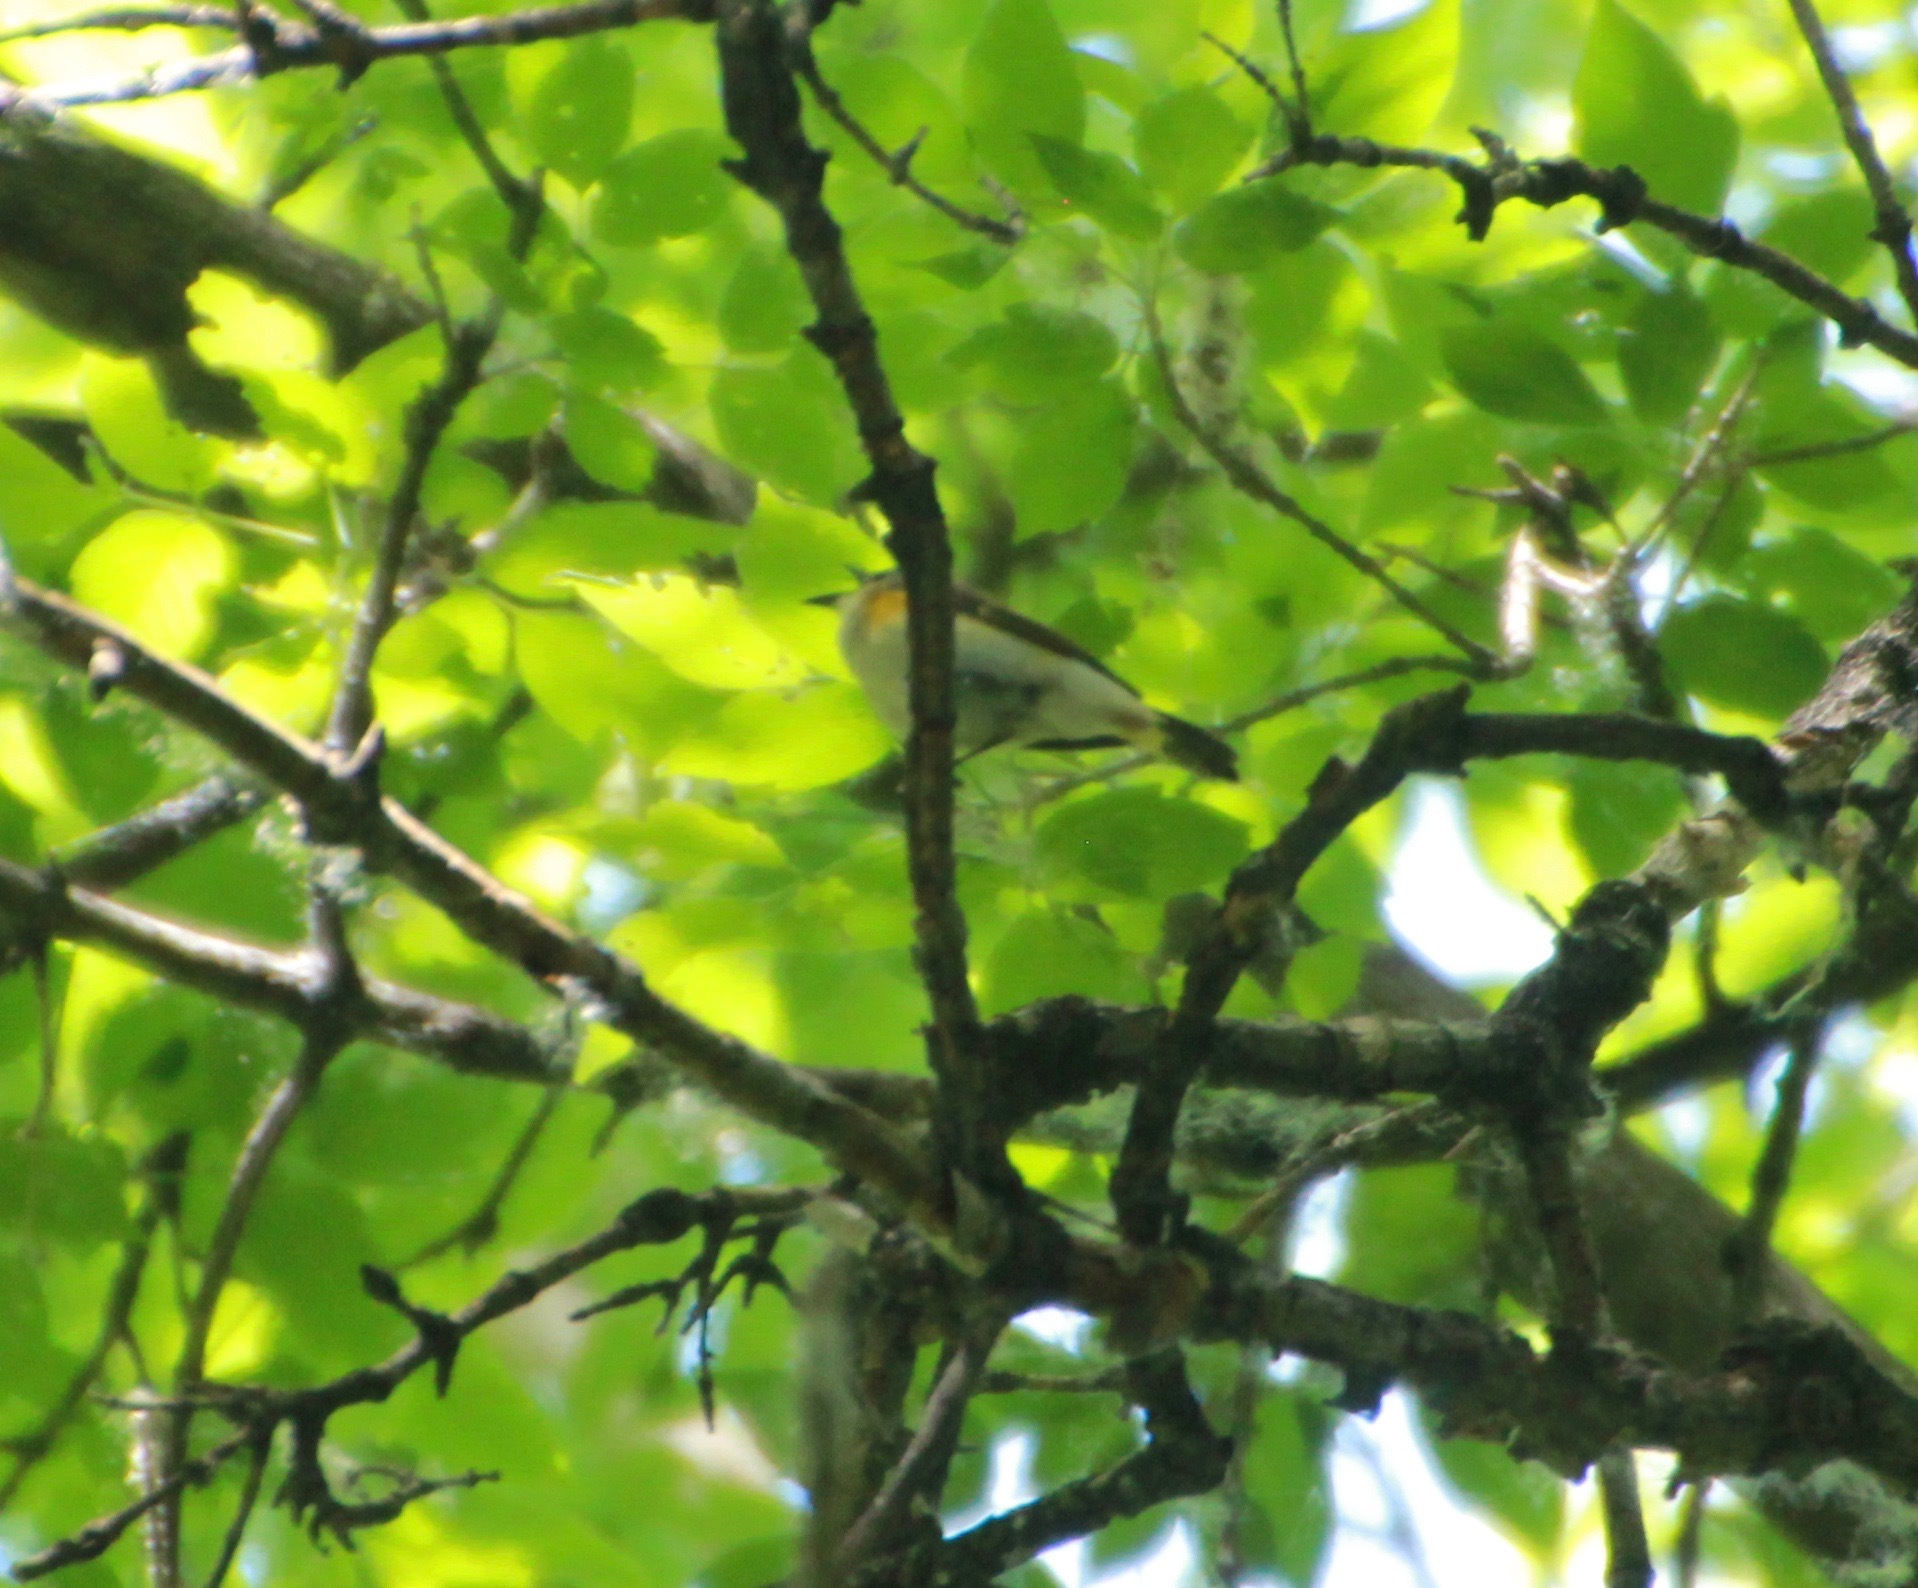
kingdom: Animalia
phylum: Chordata
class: Aves
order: Passeriformes
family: Parulidae
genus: Setophaga
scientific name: Setophaga ruticilla
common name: American redstart
